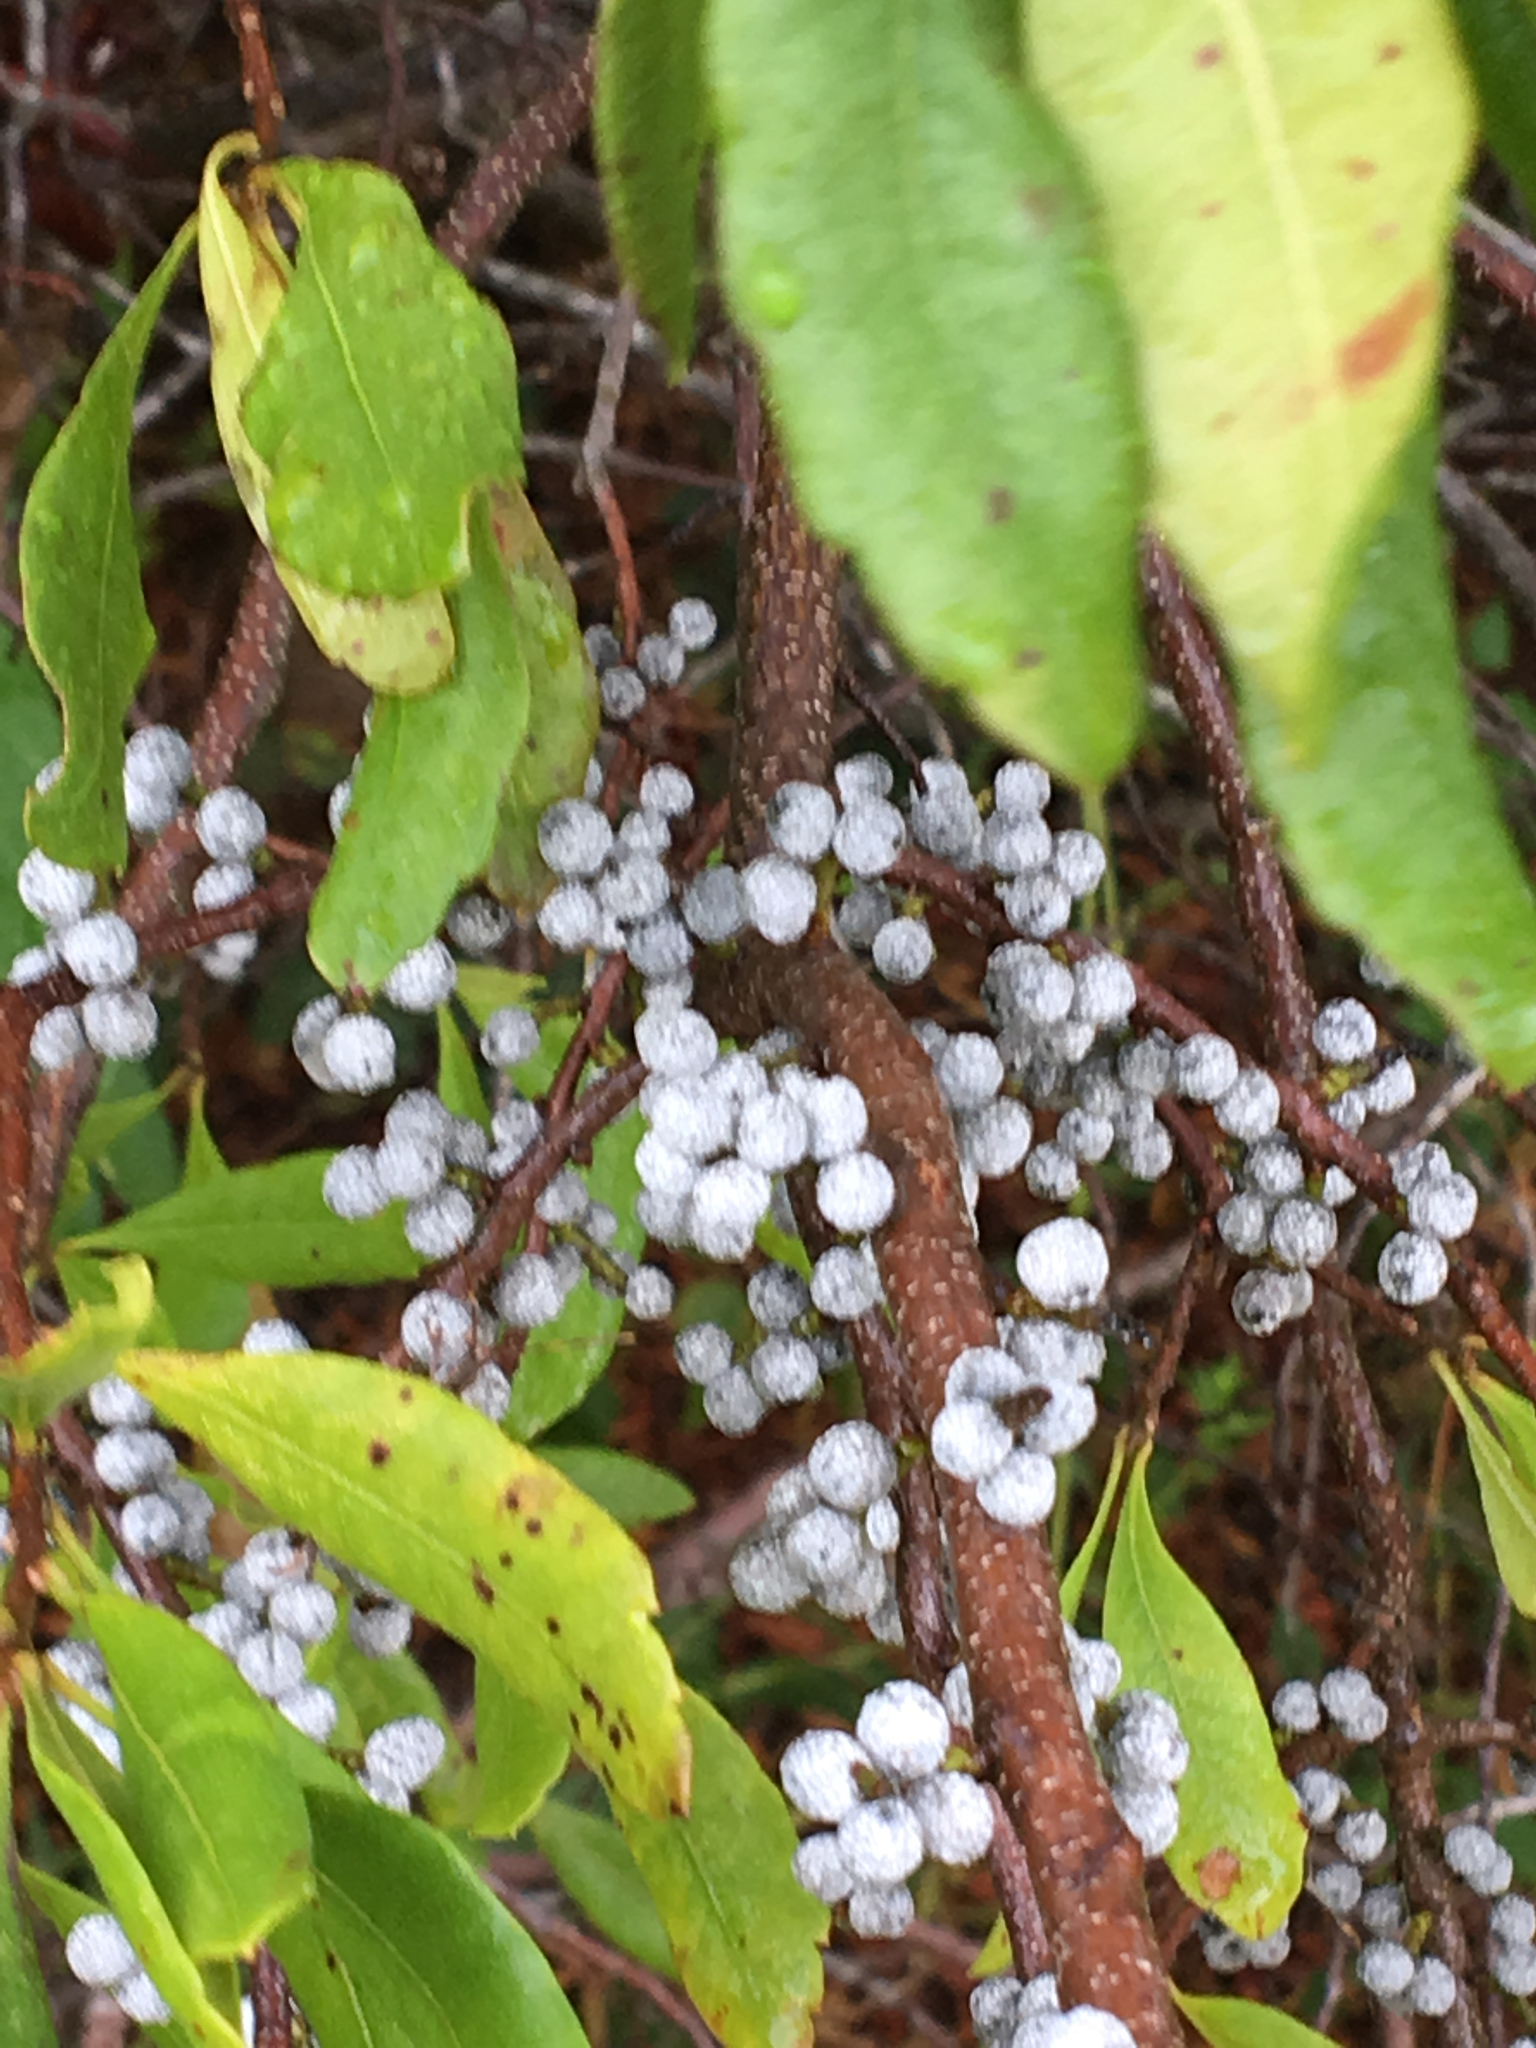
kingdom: Plantae
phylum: Tracheophyta
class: Magnoliopsida
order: Fagales
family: Myricaceae
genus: Morella
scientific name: Morella pensylvanica
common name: Northern bayberry
